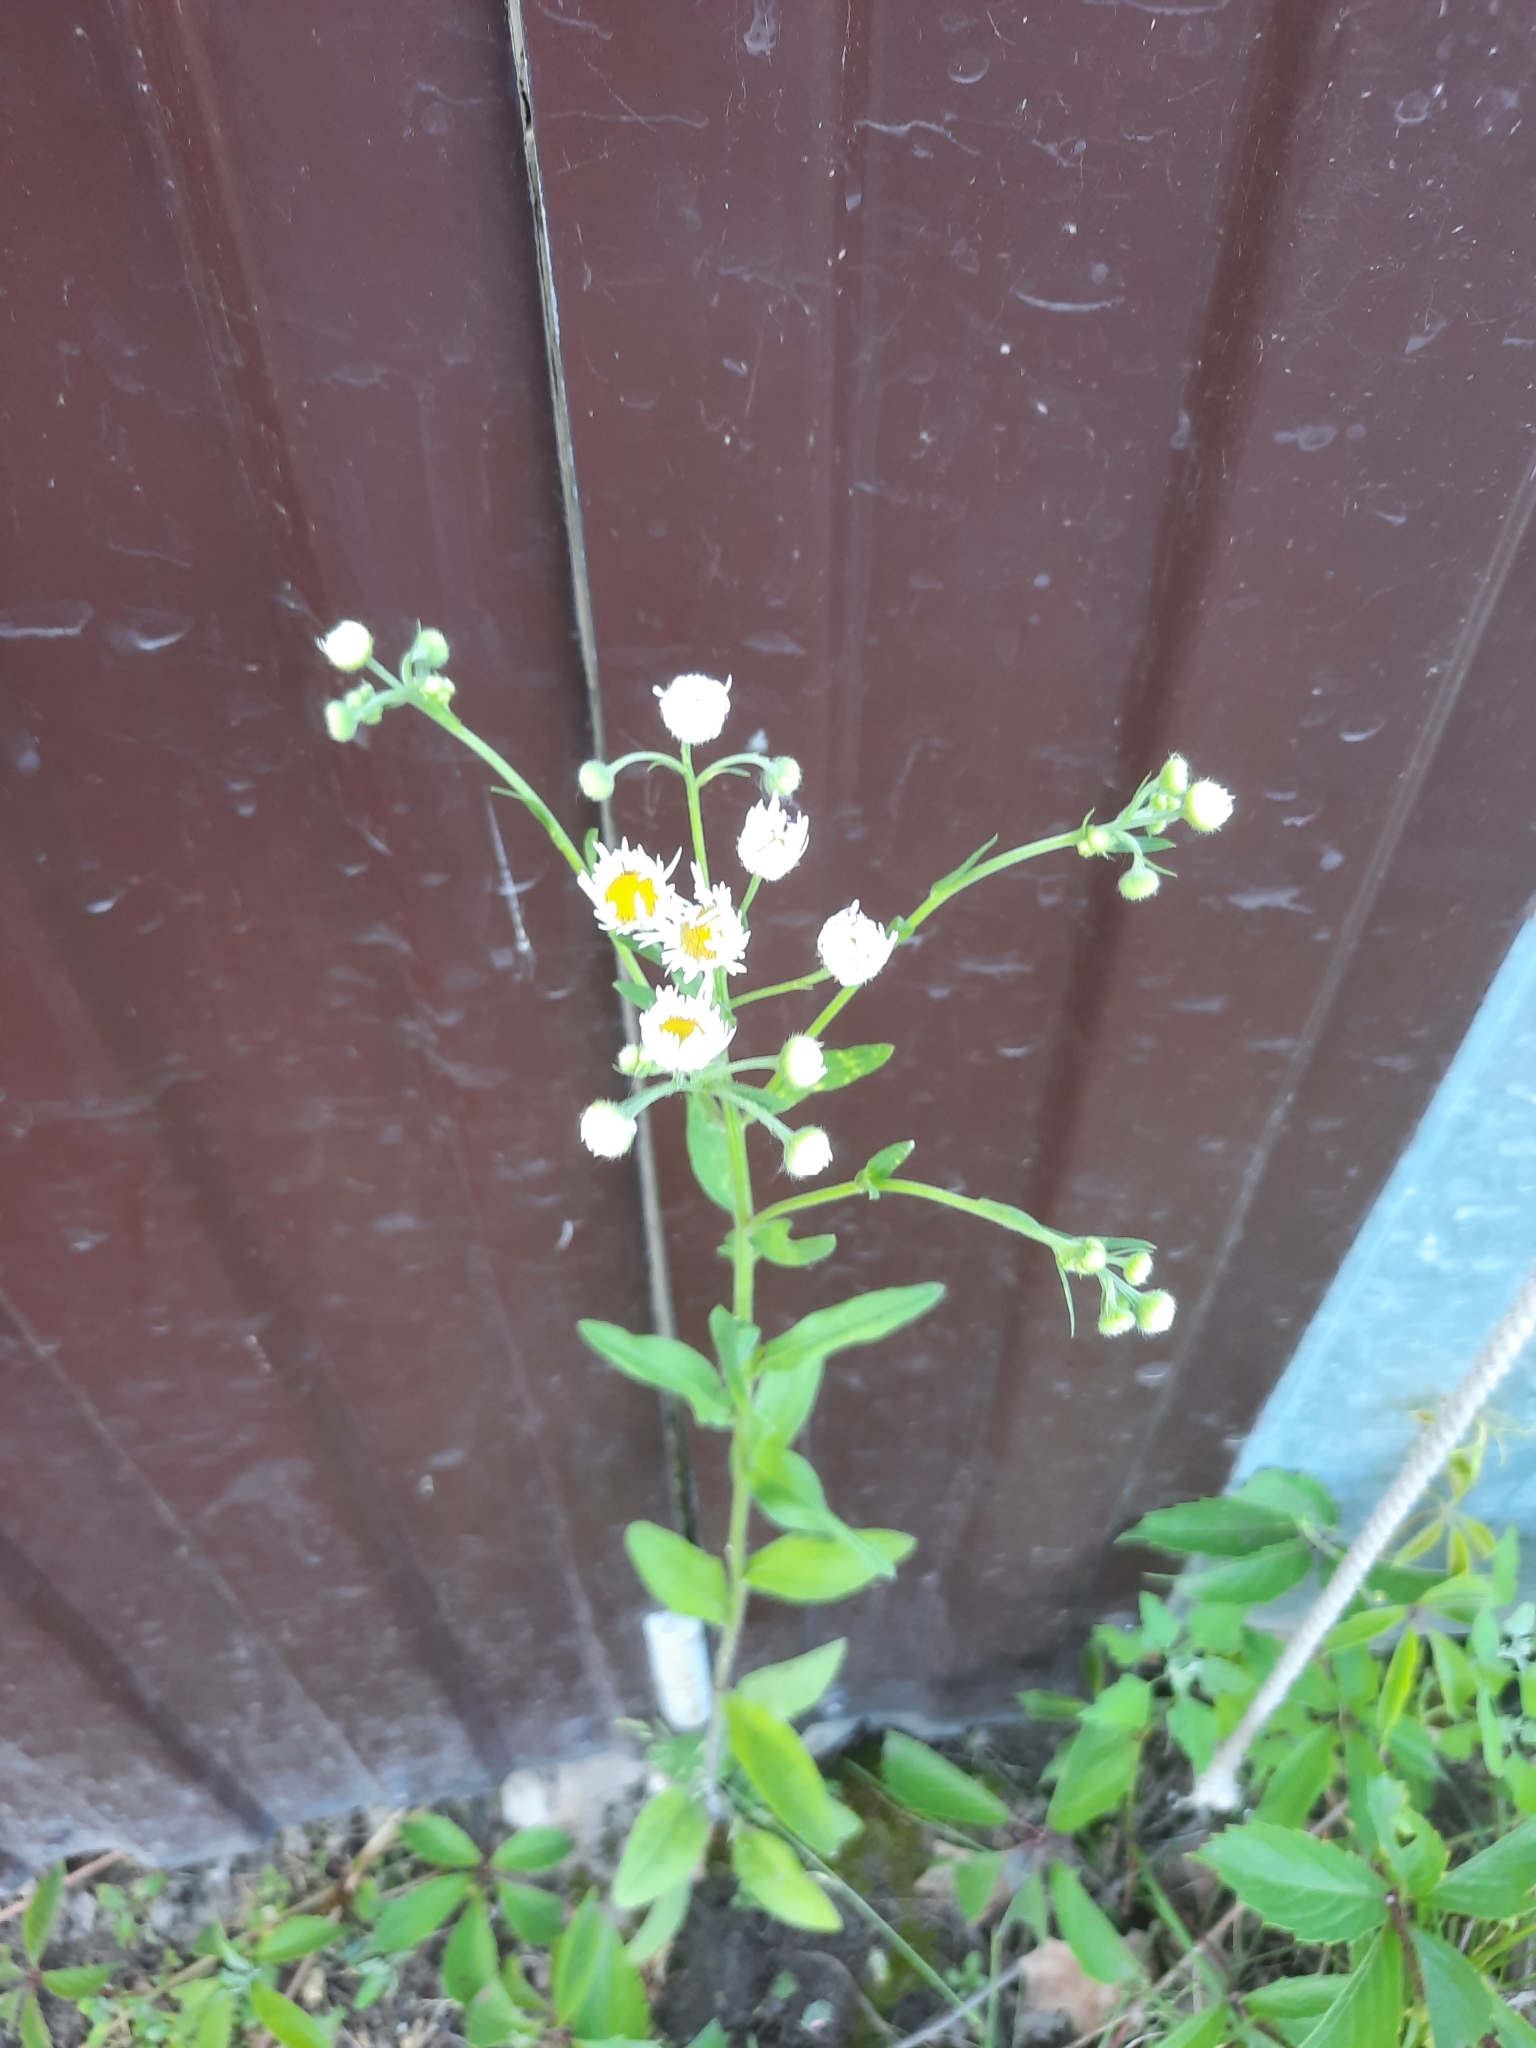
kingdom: Plantae
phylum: Tracheophyta
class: Magnoliopsida
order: Asterales
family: Asteraceae
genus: Erigeron
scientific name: Erigeron annuus
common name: Tall fleabane
